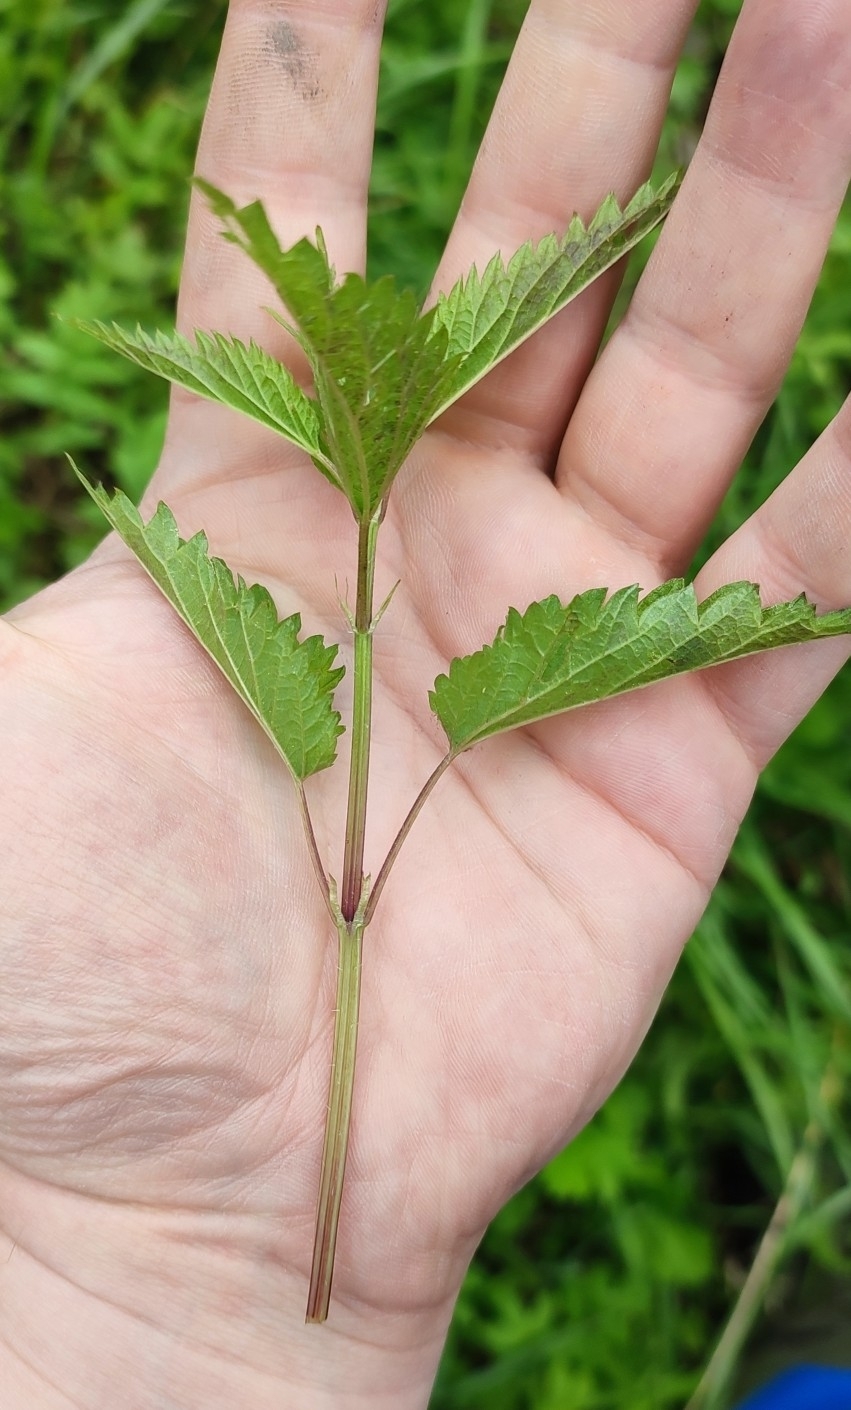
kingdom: Plantae
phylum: Tracheophyta
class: Magnoliopsida
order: Rosales
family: Urticaceae
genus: Urtica
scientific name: Urtica dioica
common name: Common nettle
